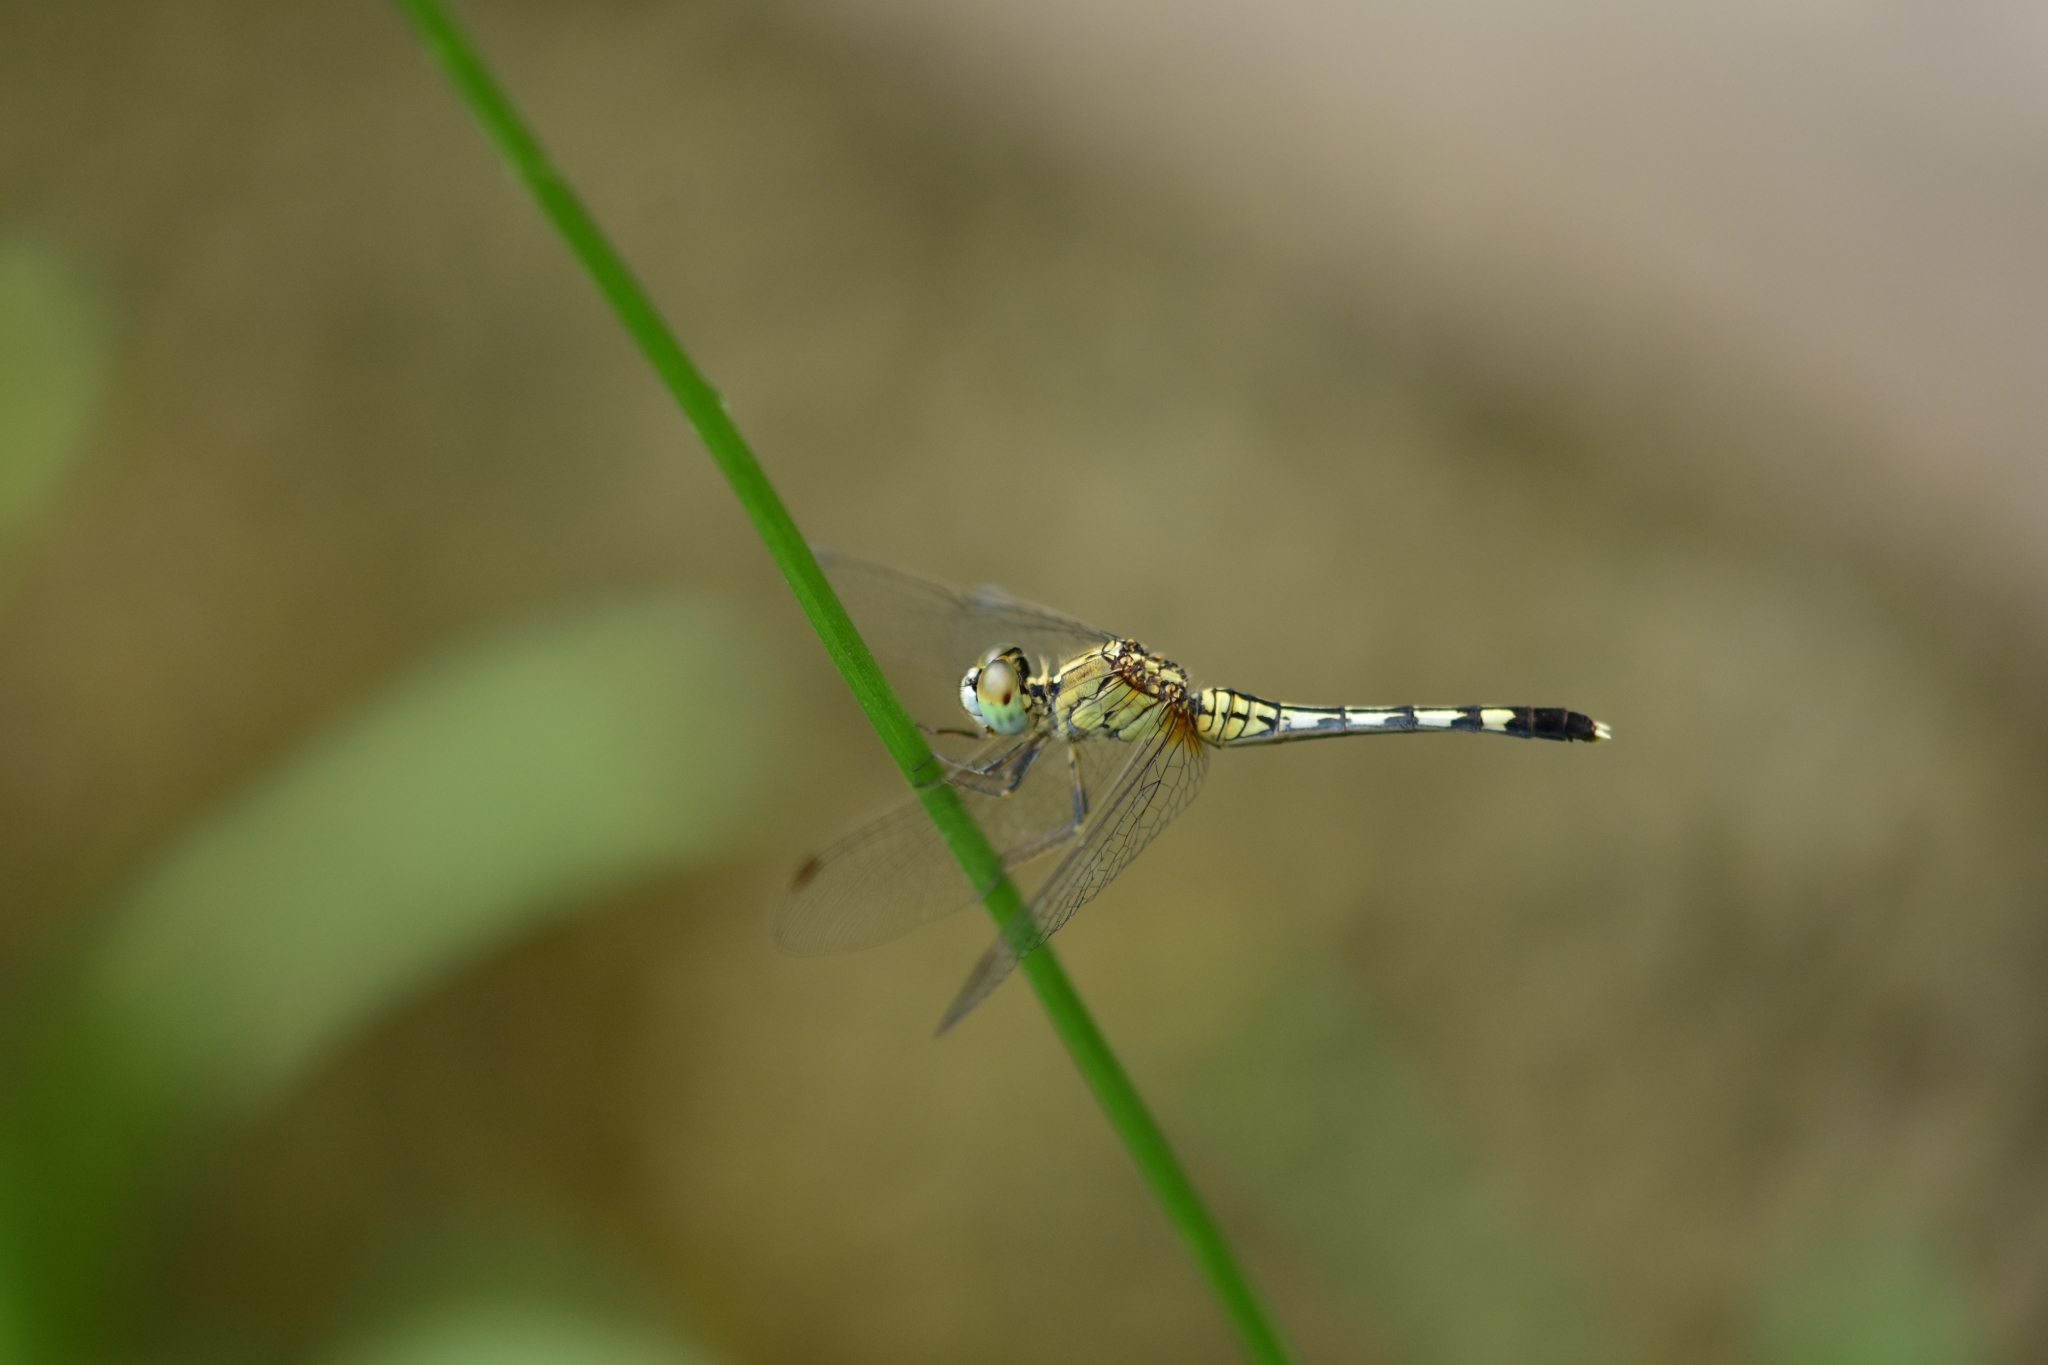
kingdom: Animalia
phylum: Arthropoda
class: Insecta
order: Odonata
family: Libellulidae
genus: Diplacodes
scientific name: Diplacodes trivialis
